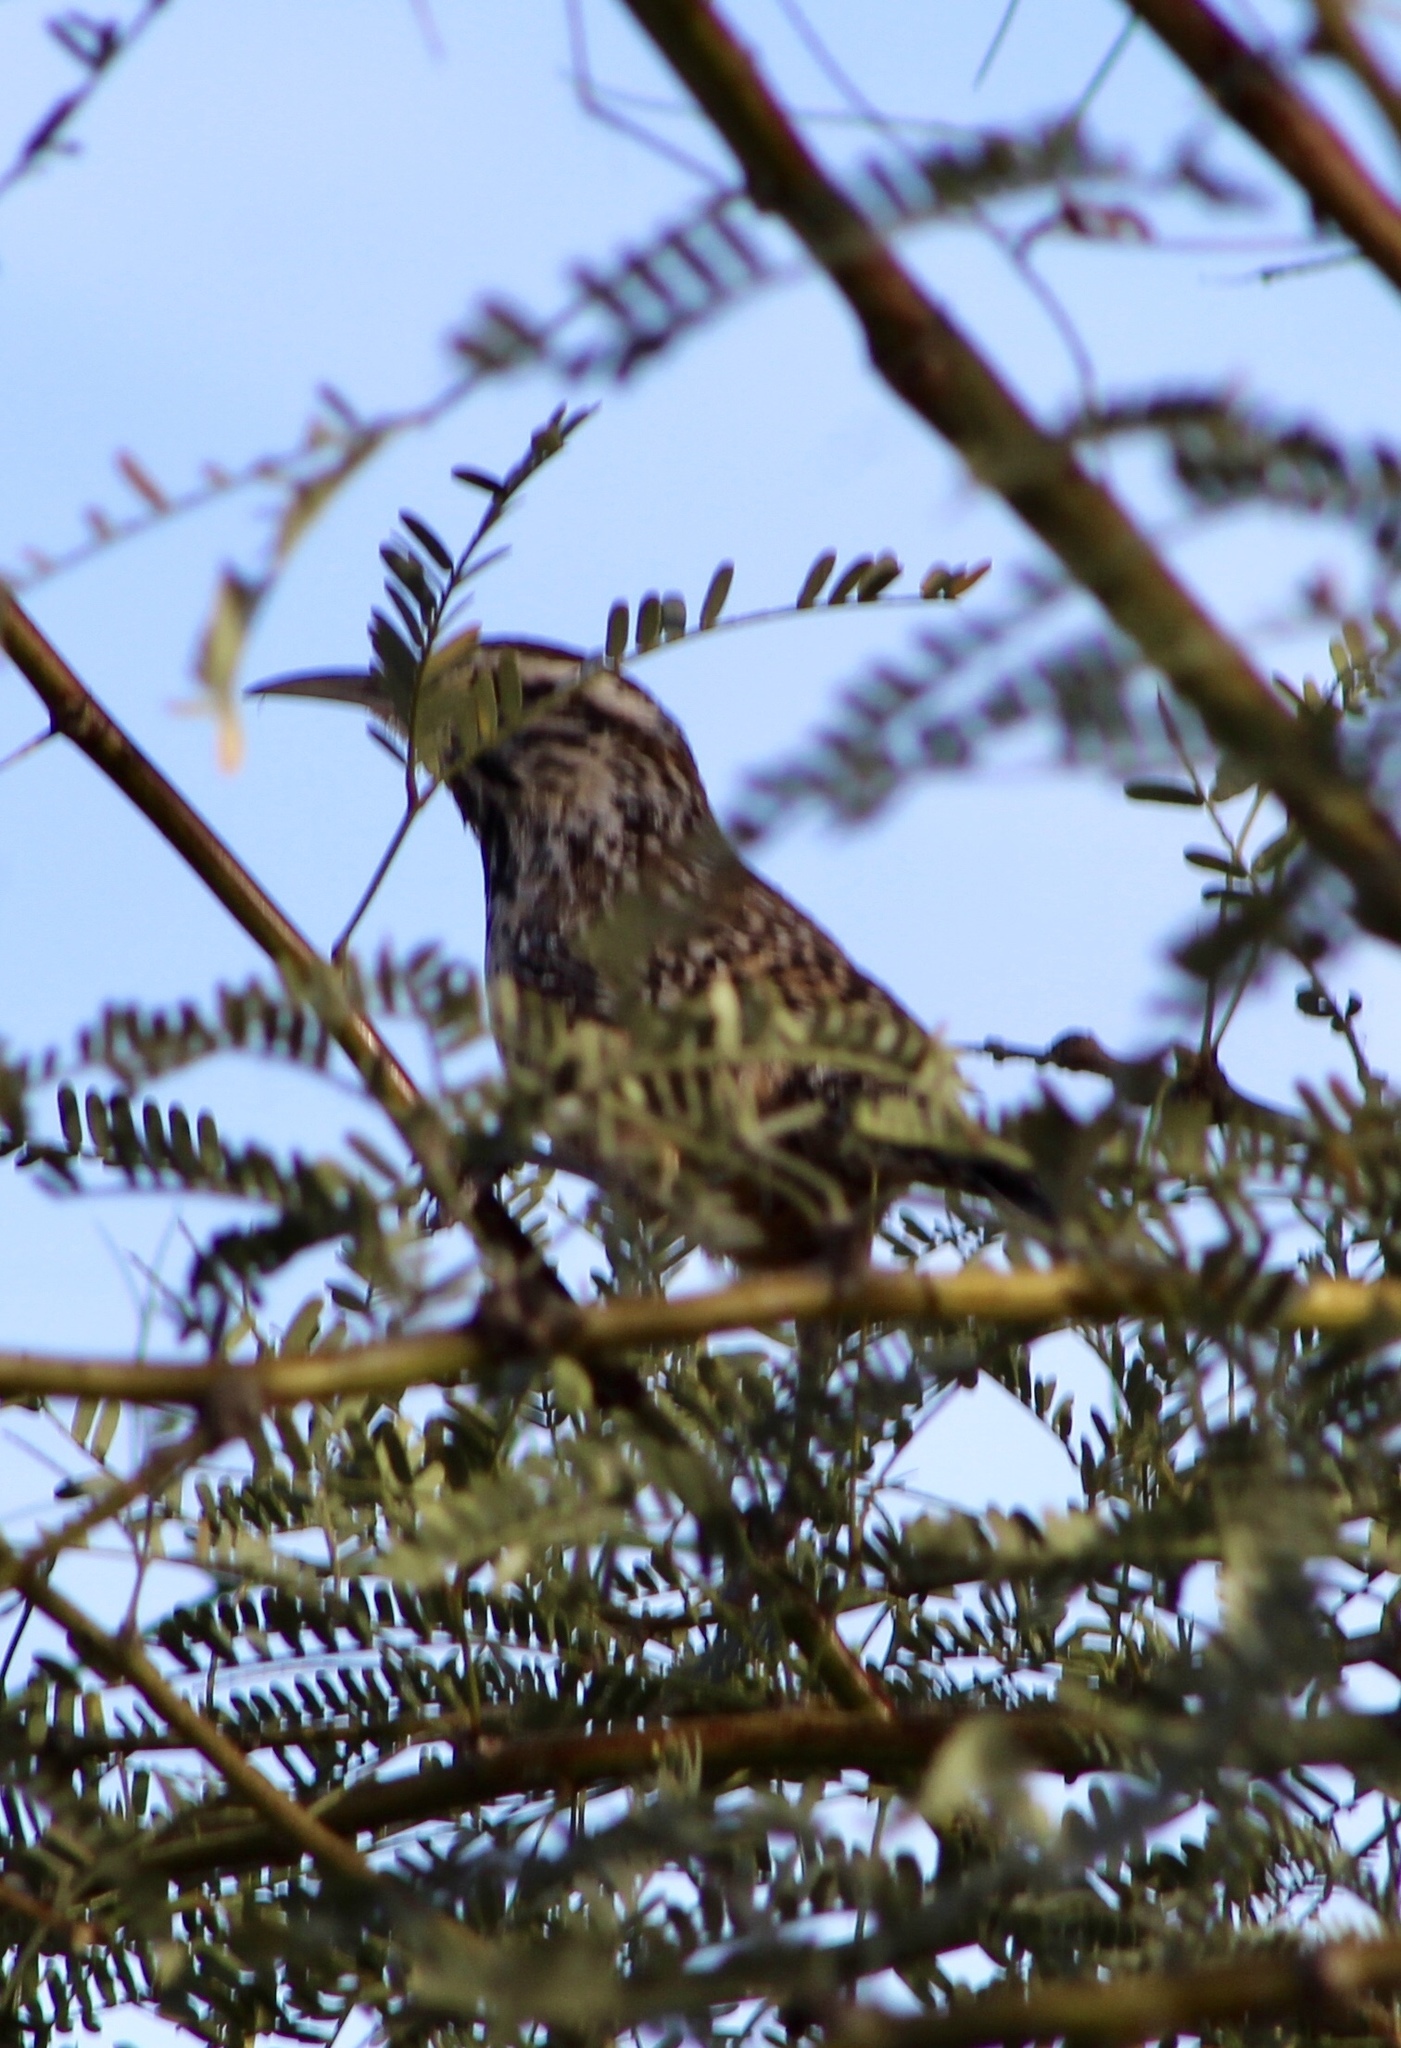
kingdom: Animalia
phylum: Chordata
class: Aves
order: Passeriformes
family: Troglodytidae
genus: Campylorhynchus
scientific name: Campylorhynchus brunneicapillus
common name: Cactus wren
